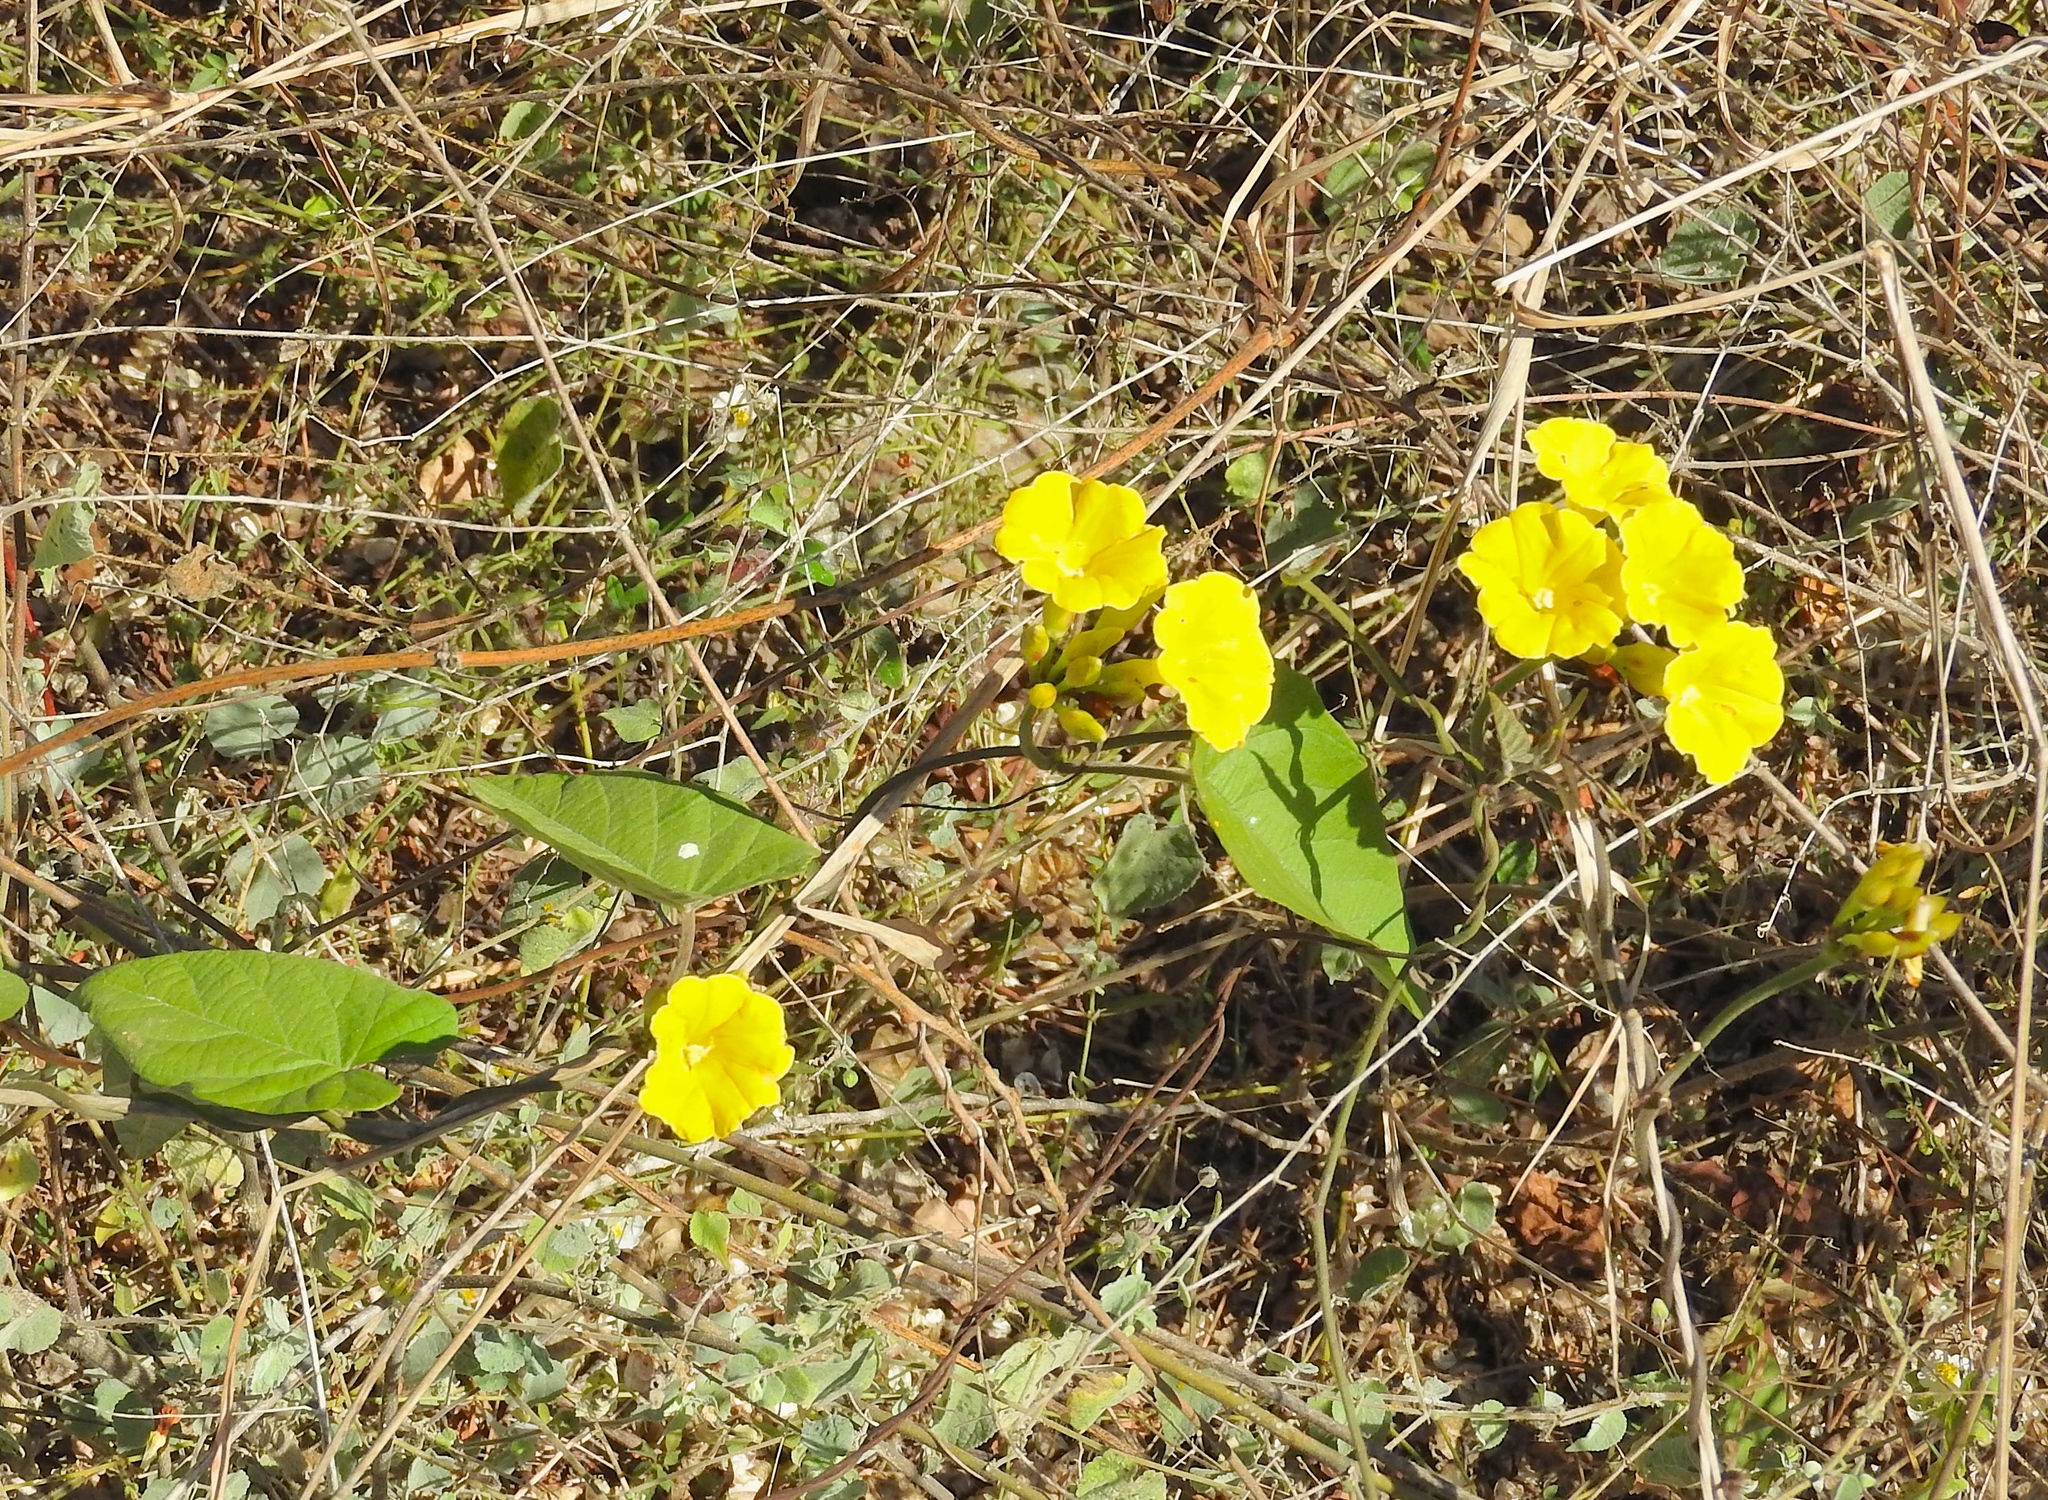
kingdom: Plantae
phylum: Tracheophyta
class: Magnoliopsida
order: Solanales
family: Convolvulaceae
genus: Camonea
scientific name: Camonea umbellata
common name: Hogvine
